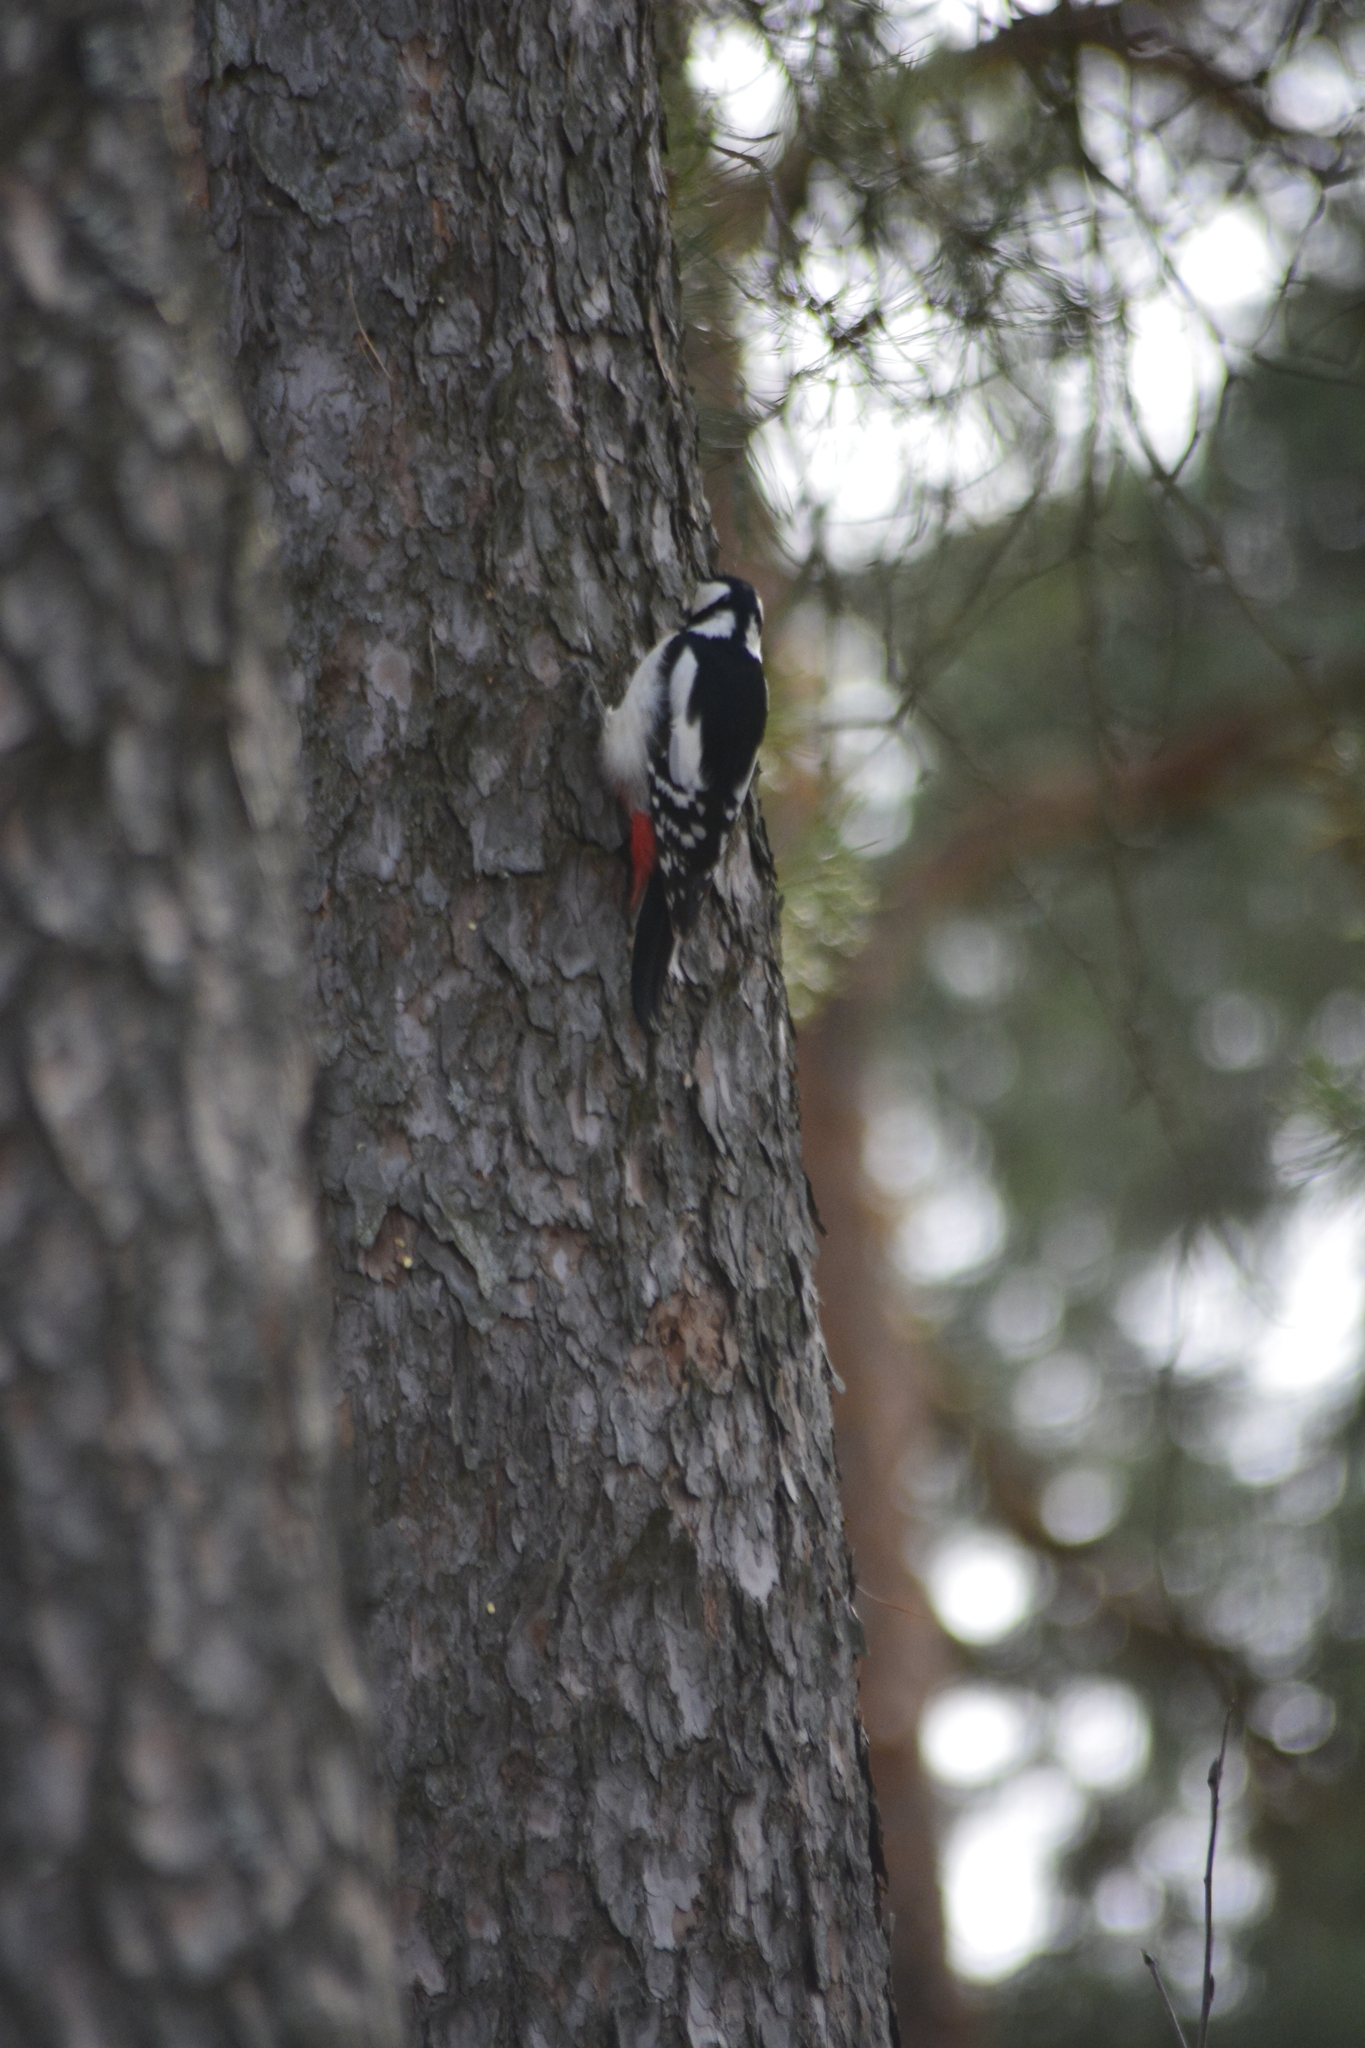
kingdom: Animalia
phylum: Chordata
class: Aves
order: Piciformes
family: Picidae
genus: Dendrocopos
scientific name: Dendrocopos major
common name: Great spotted woodpecker
